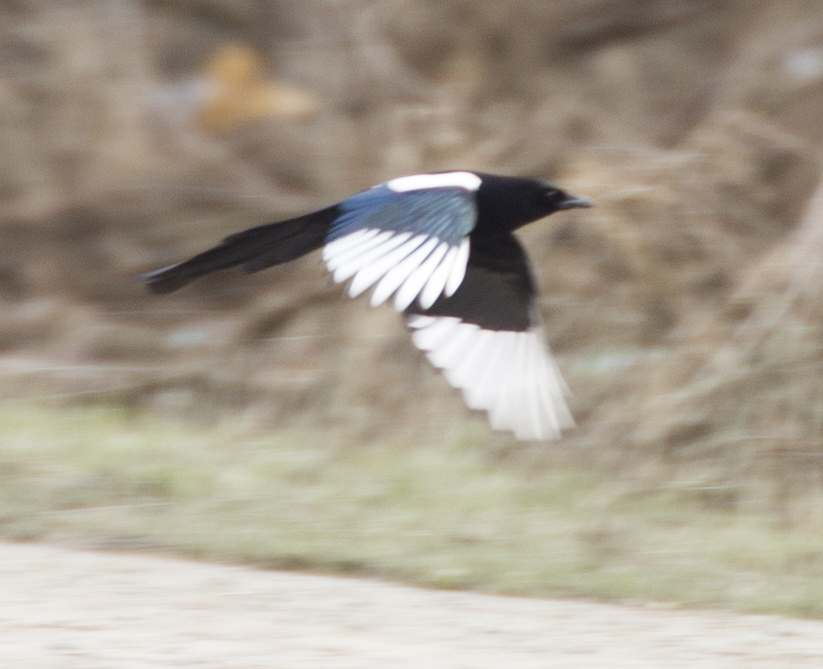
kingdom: Animalia
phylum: Chordata
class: Aves
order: Passeriformes
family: Corvidae
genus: Pica
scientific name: Pica pica
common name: Eurasian magpie
